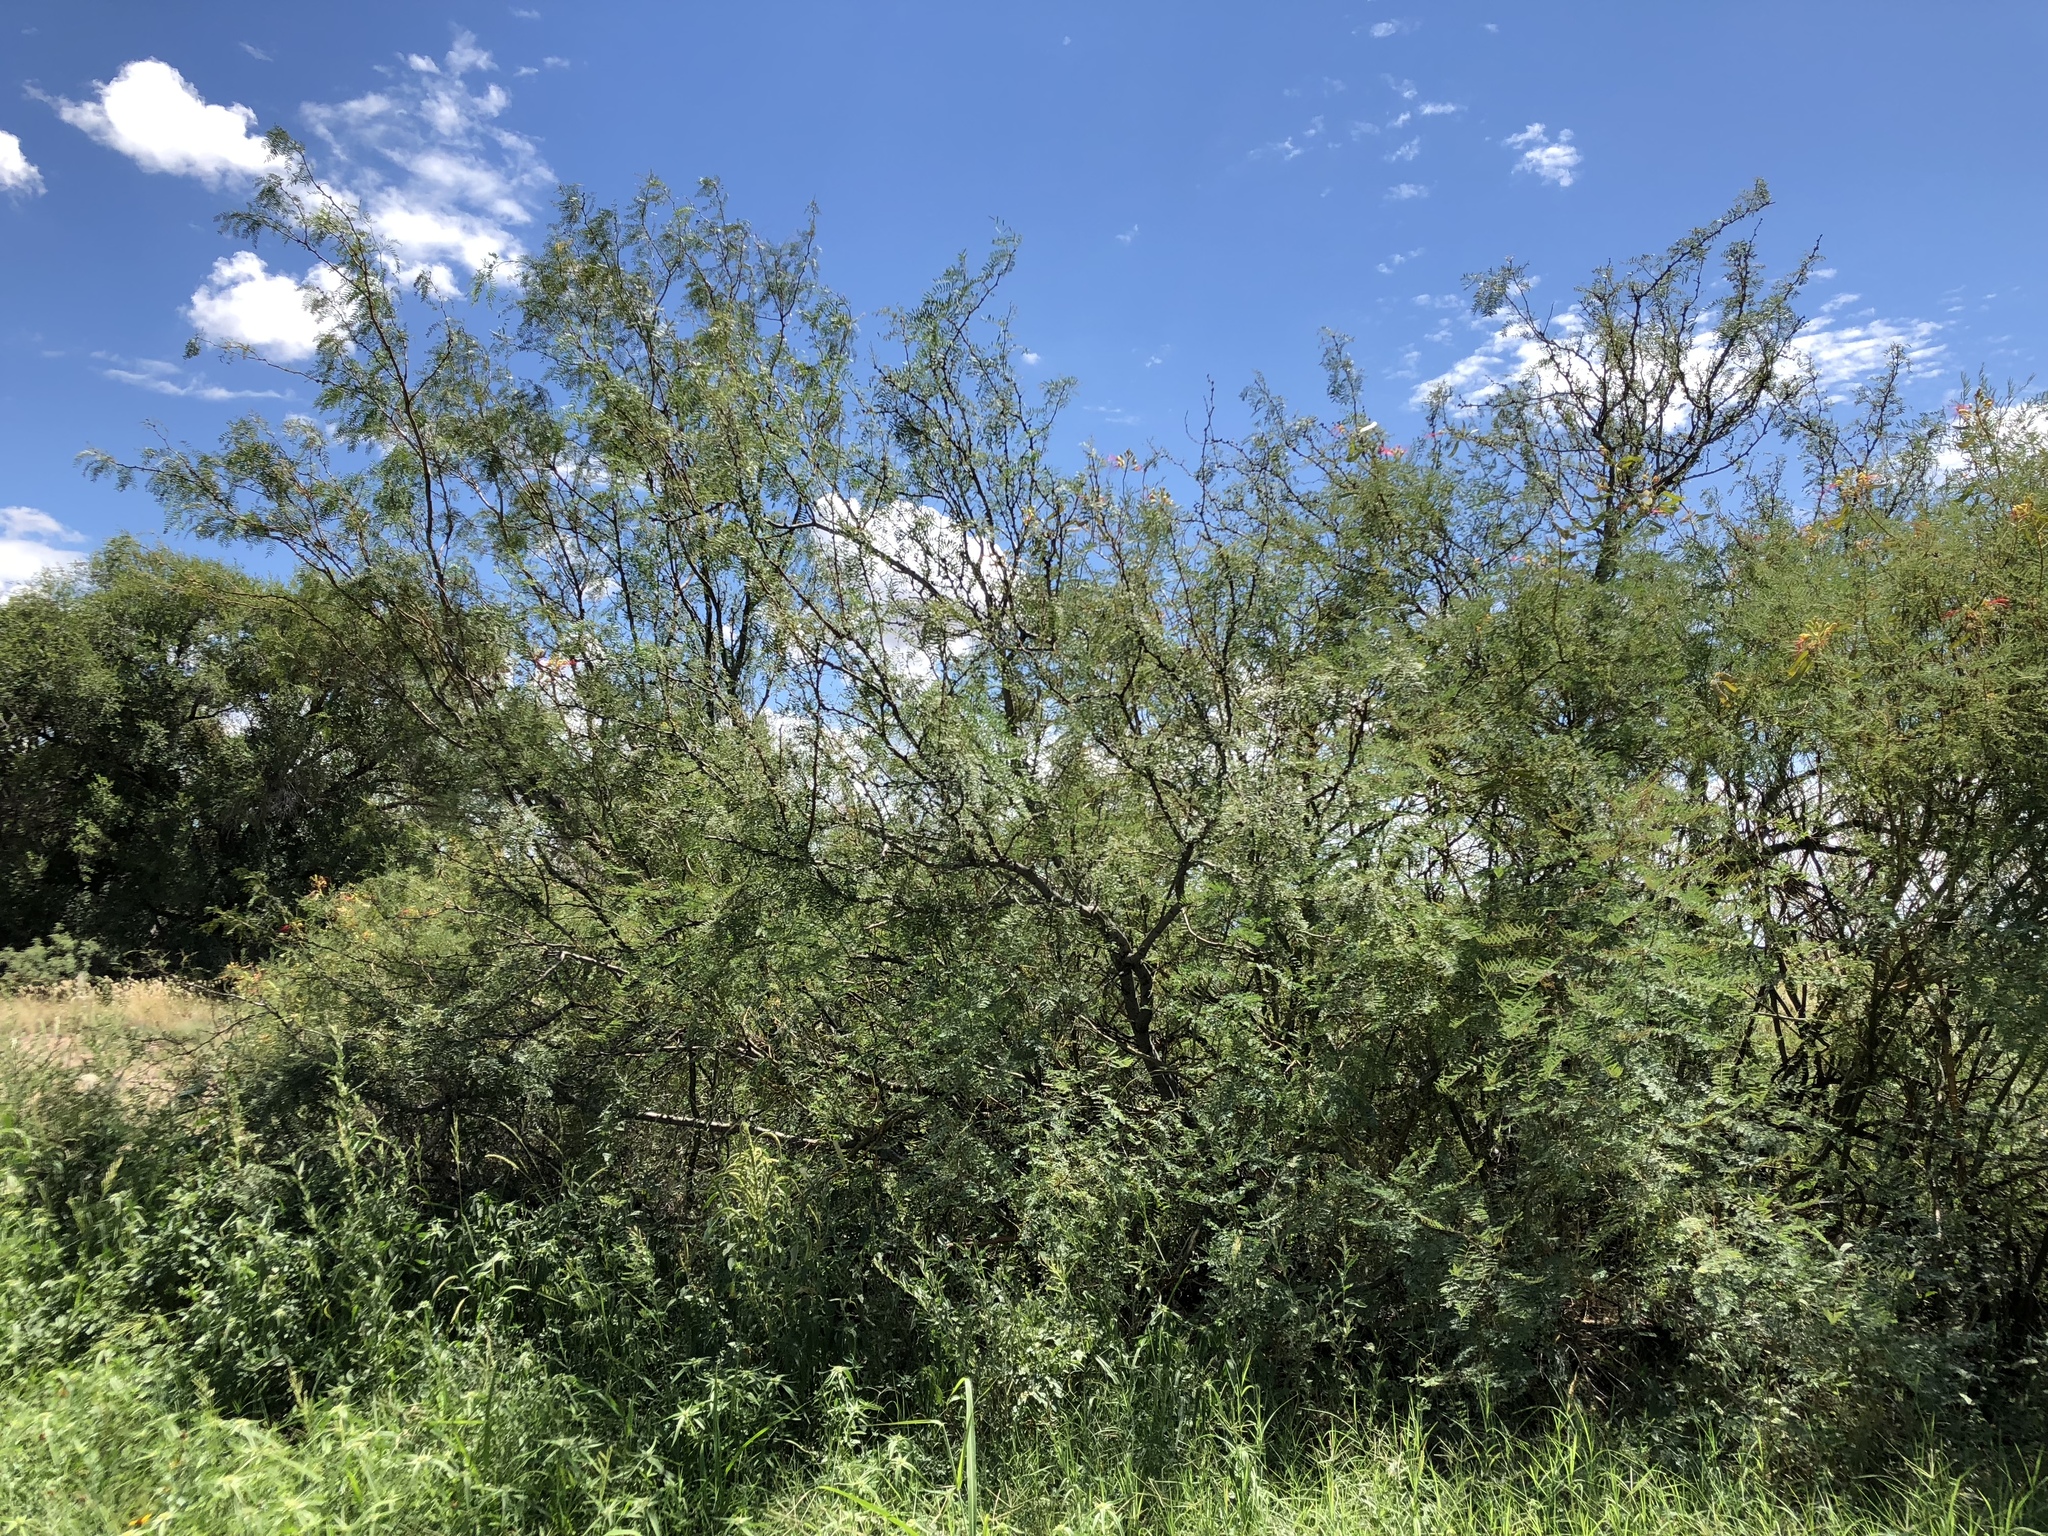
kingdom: Plantae
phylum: Tracheophyta
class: Magnoliopsida
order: Fabales
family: Fabaceae
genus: Prosopis
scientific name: Prosopis glandulosa
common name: Honey mesquite
